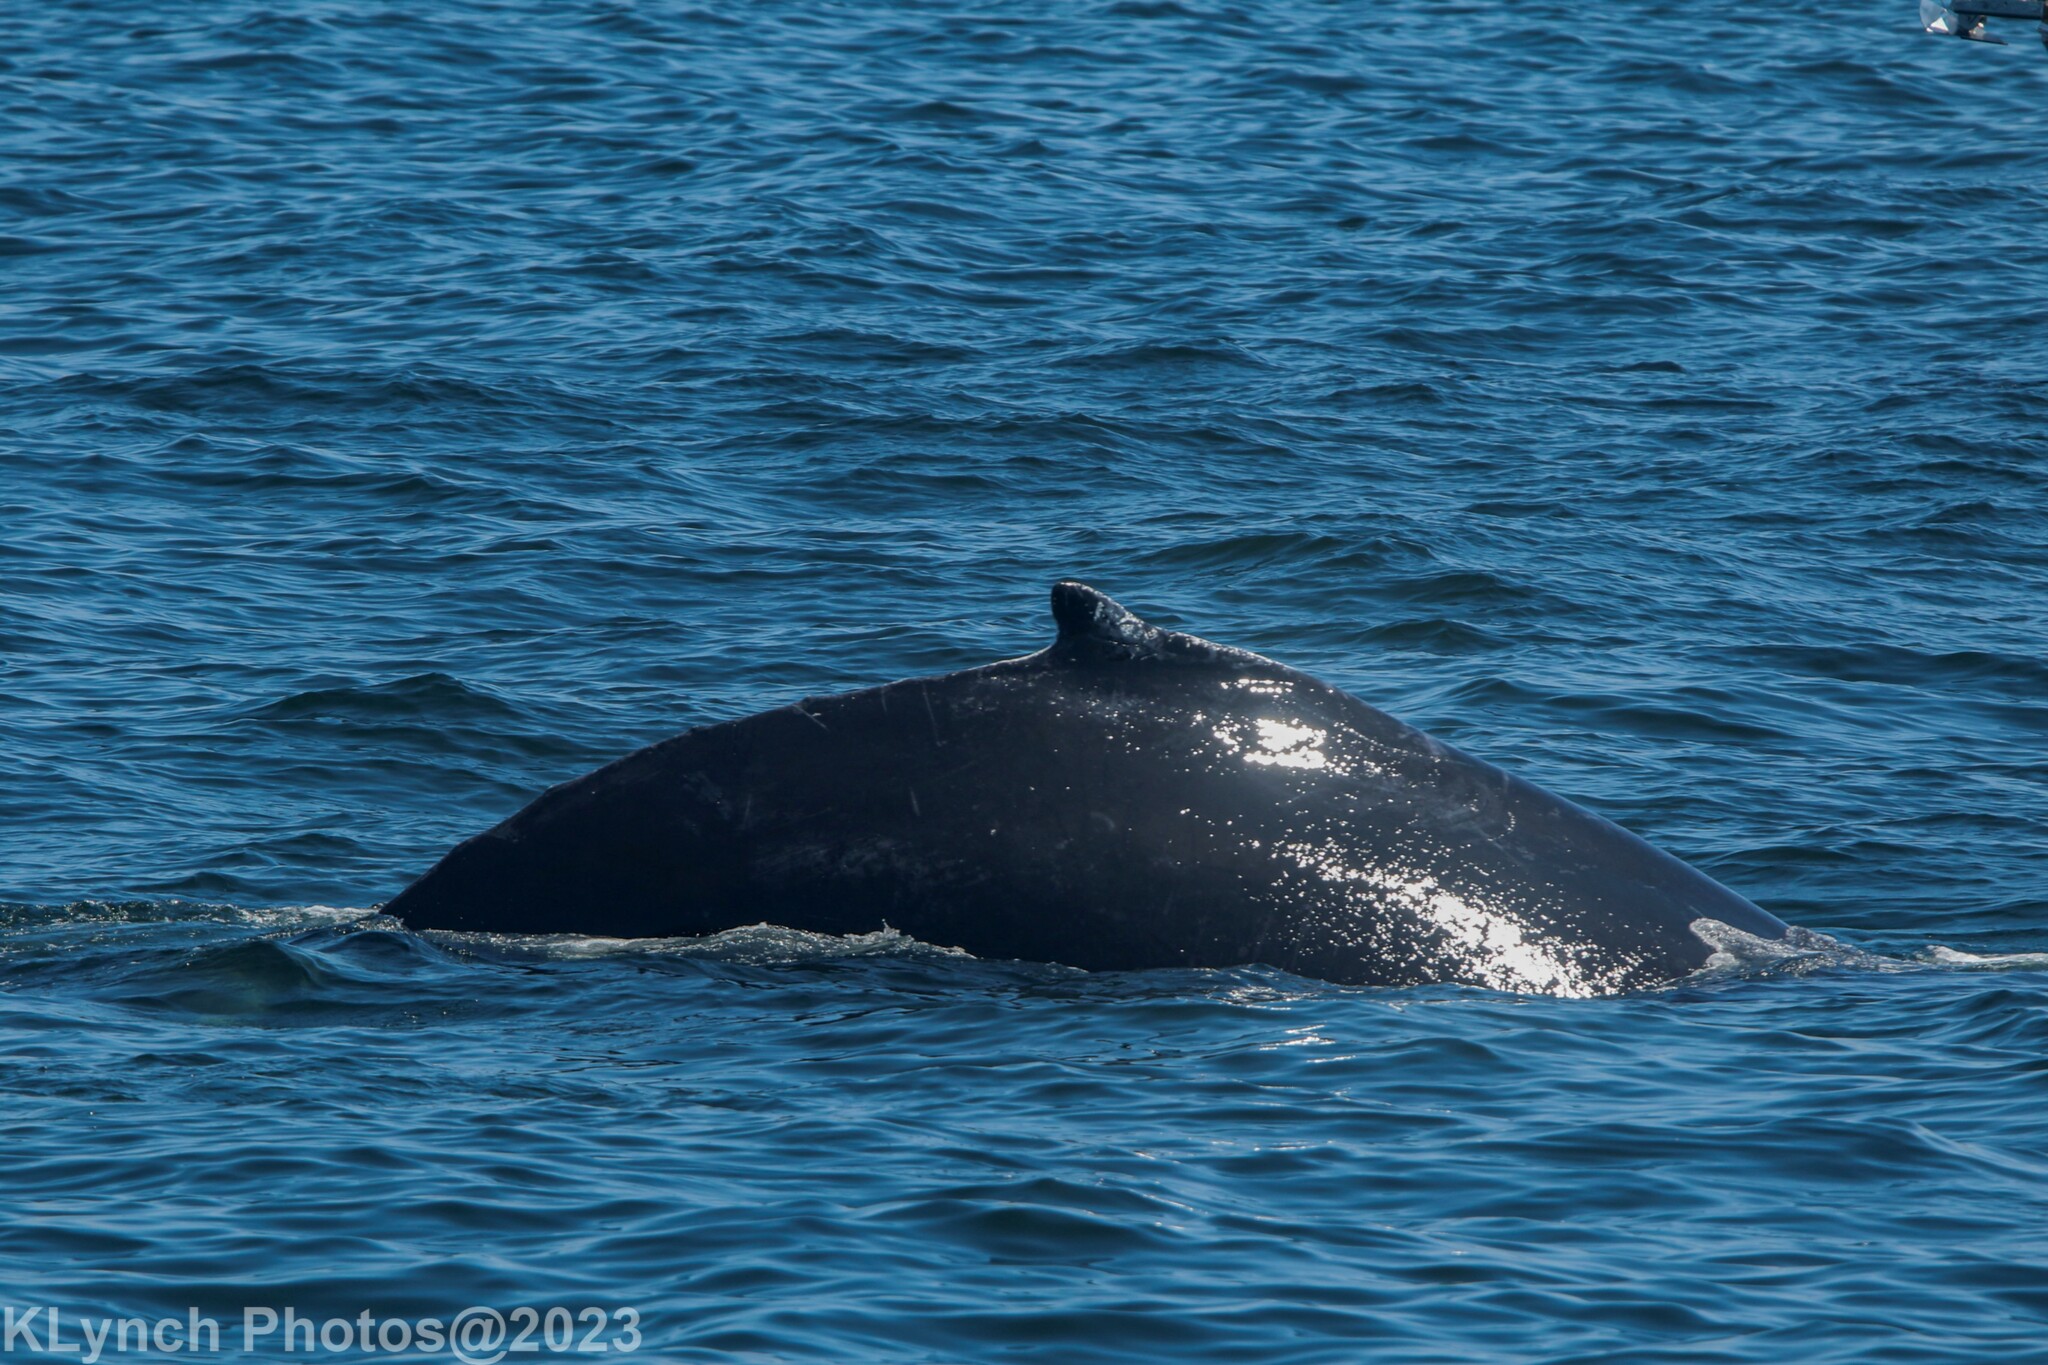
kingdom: Animalia
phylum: Chordata
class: Mammalia
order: Cetacea
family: Balaenopteridae
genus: Megaptera
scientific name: Megaptera novaeangliae
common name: Humpback whale
